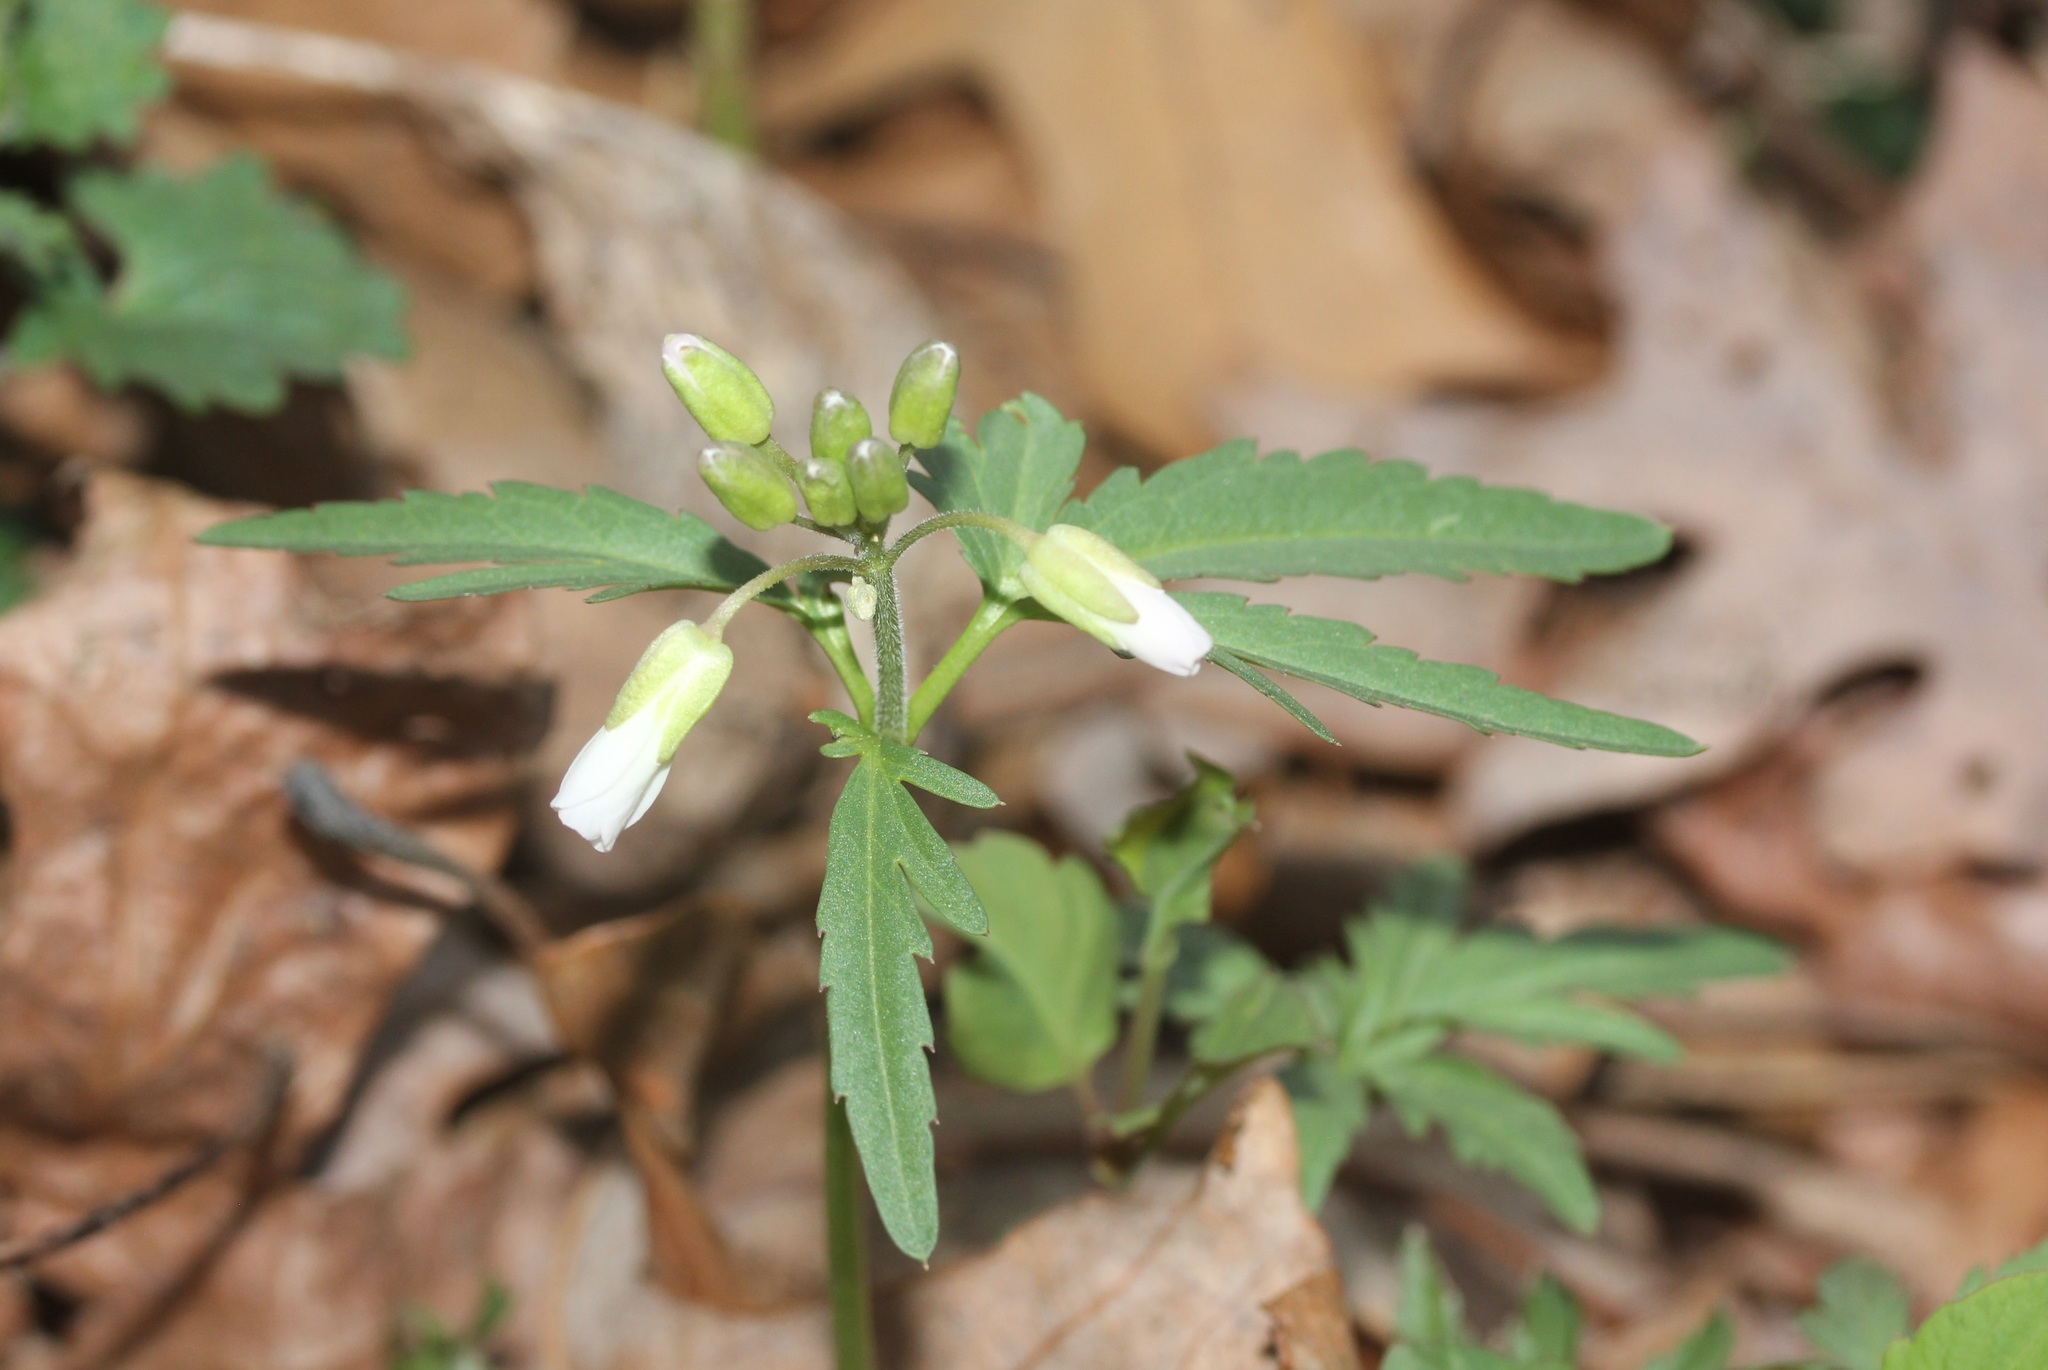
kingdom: Plantae
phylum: Tracheophyta
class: Magnoliopsida
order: Brassicales
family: Brassicaceae
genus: Cardamine
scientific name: Cardamine concatenata
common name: Cut-leaf toothcup
